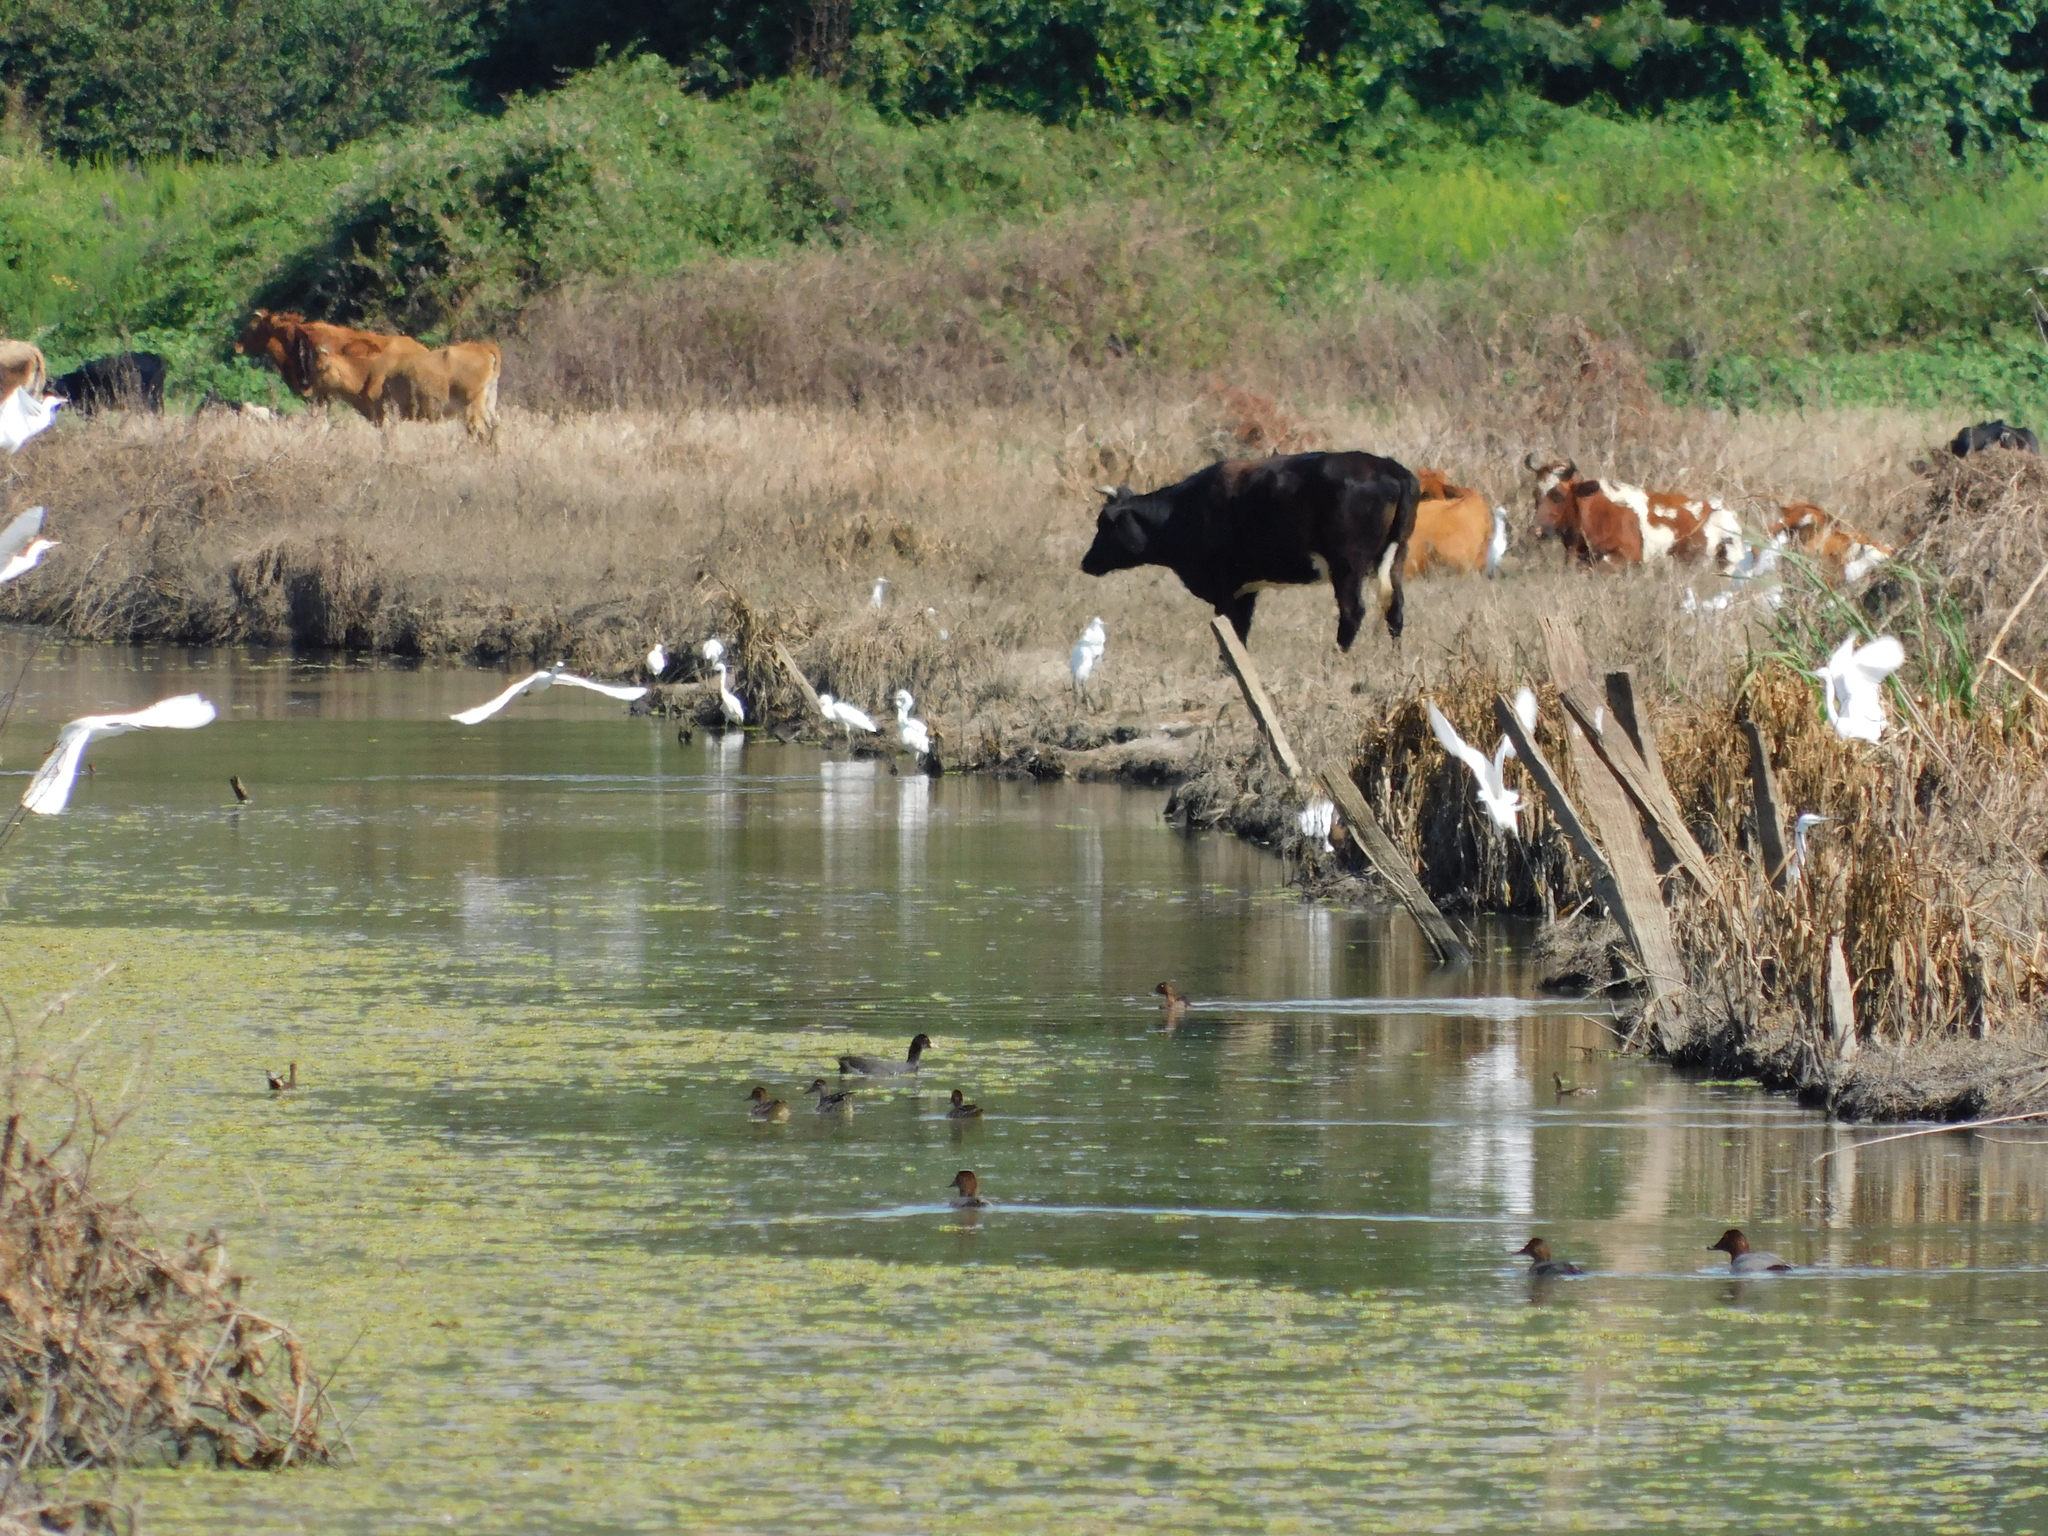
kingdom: Animalia
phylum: Chordata
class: Aves
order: Pelecaniformes
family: Ardeidae
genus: Egretta
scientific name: Egretta garzetta
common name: Little egret
